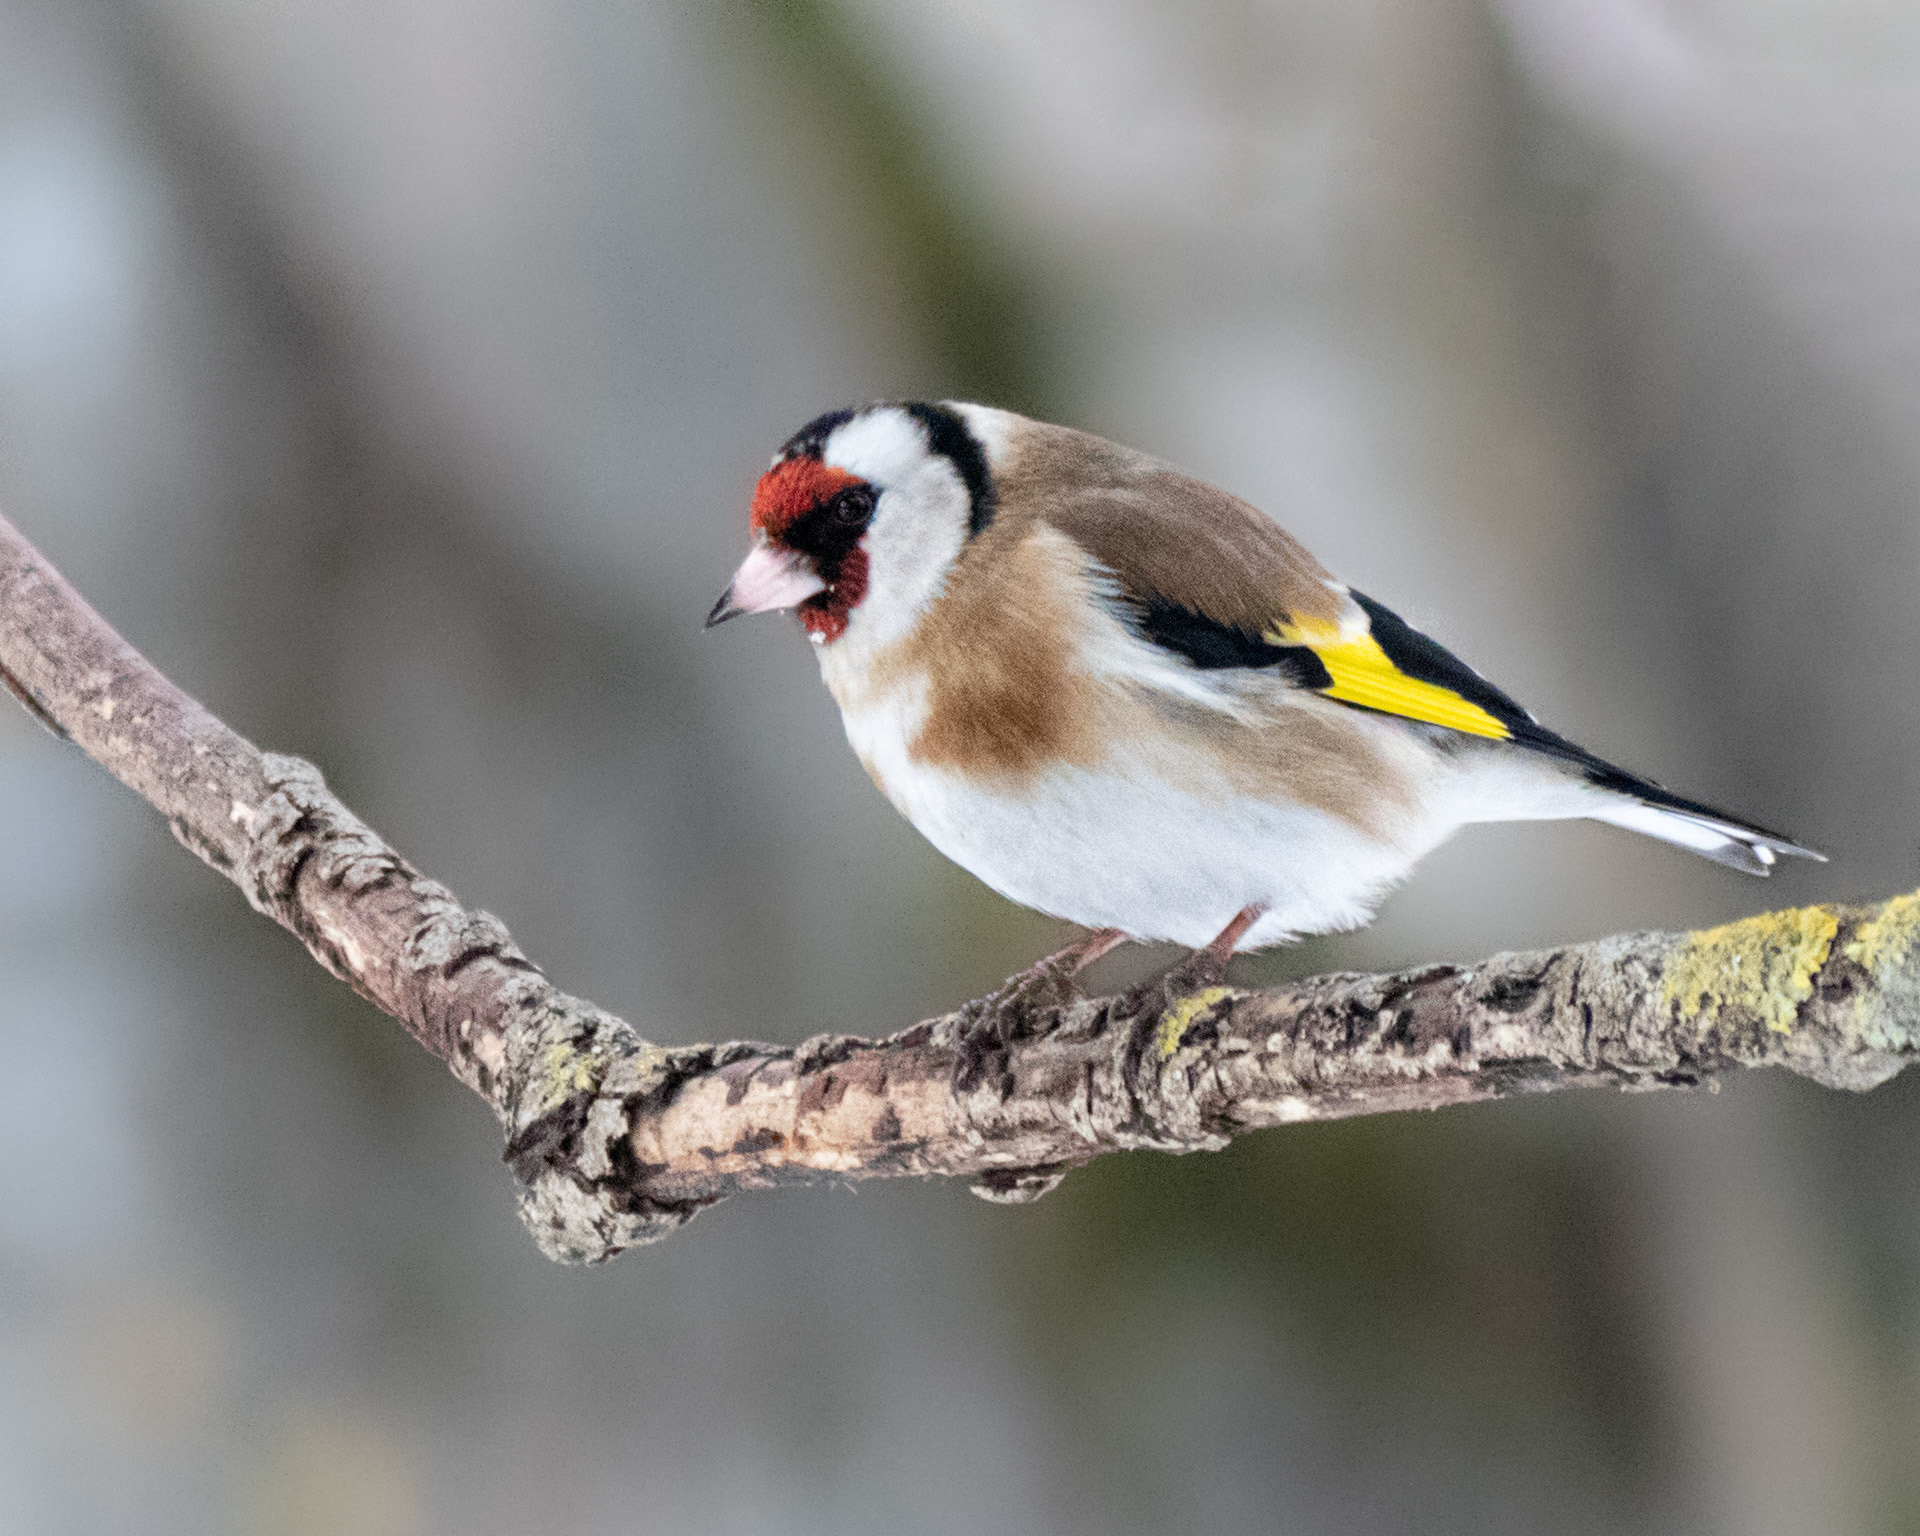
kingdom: Animalia
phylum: Chordata
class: Aves
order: Passeriformes
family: Fringillidae
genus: Carduelis
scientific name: Carduelis carduelis
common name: European goldfinch
